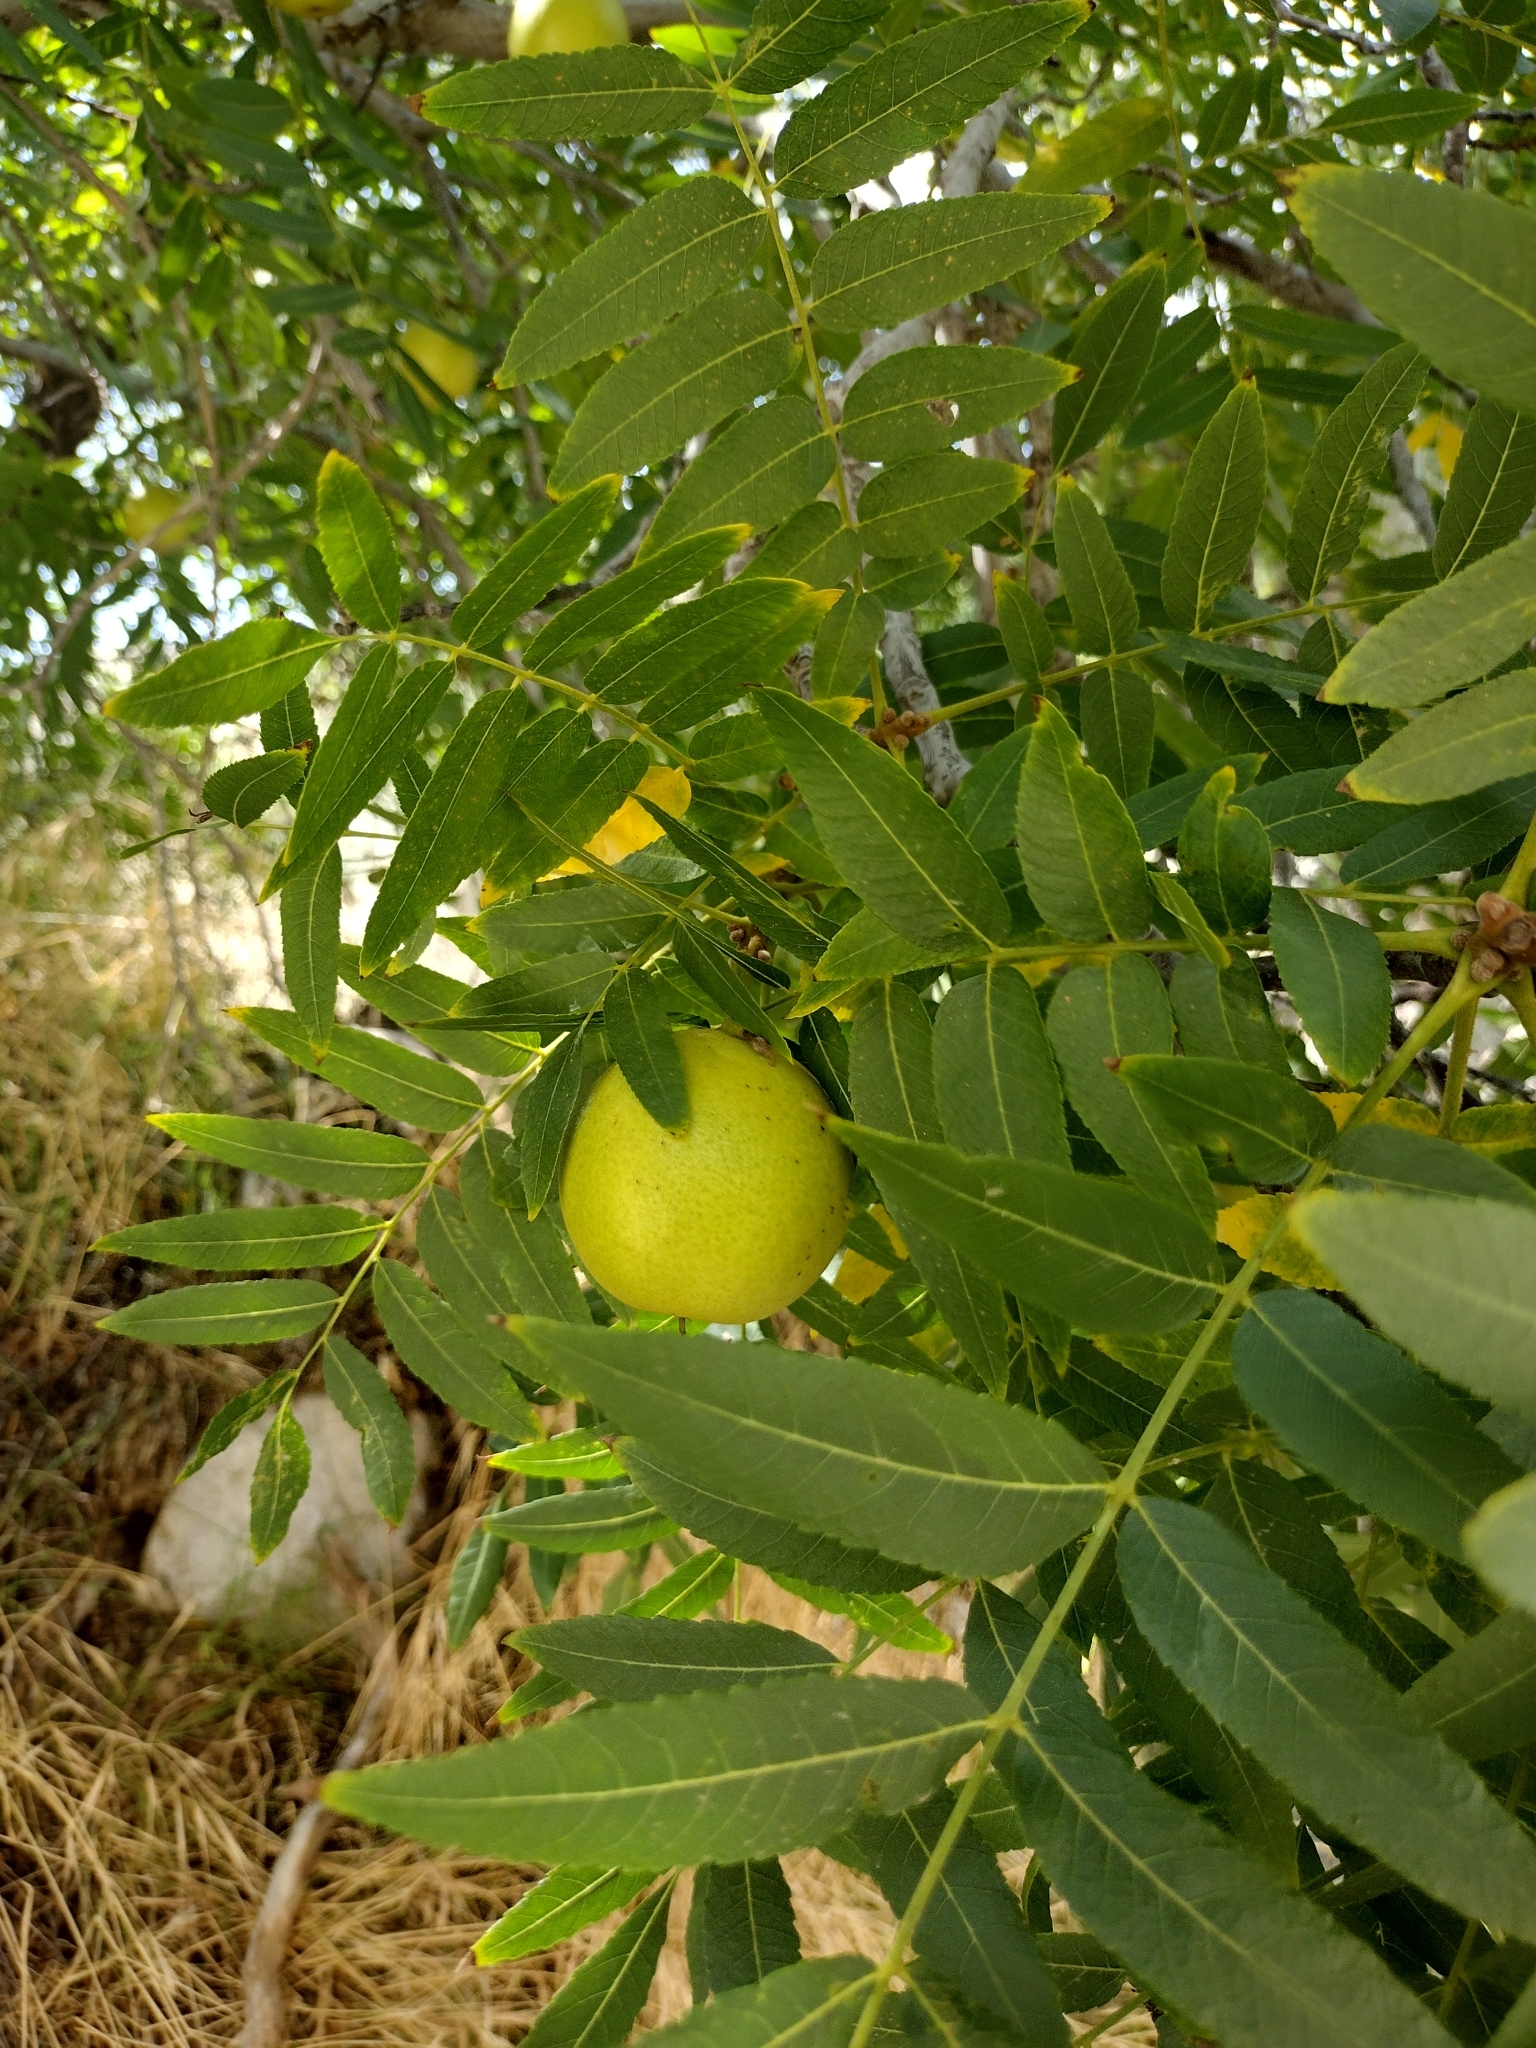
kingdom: Plantae
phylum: Tracheophyta
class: Magnoliopsida
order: Fagales
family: Juglandaceae
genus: Juglans
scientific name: Juglans californica
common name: Southern california black walnut
